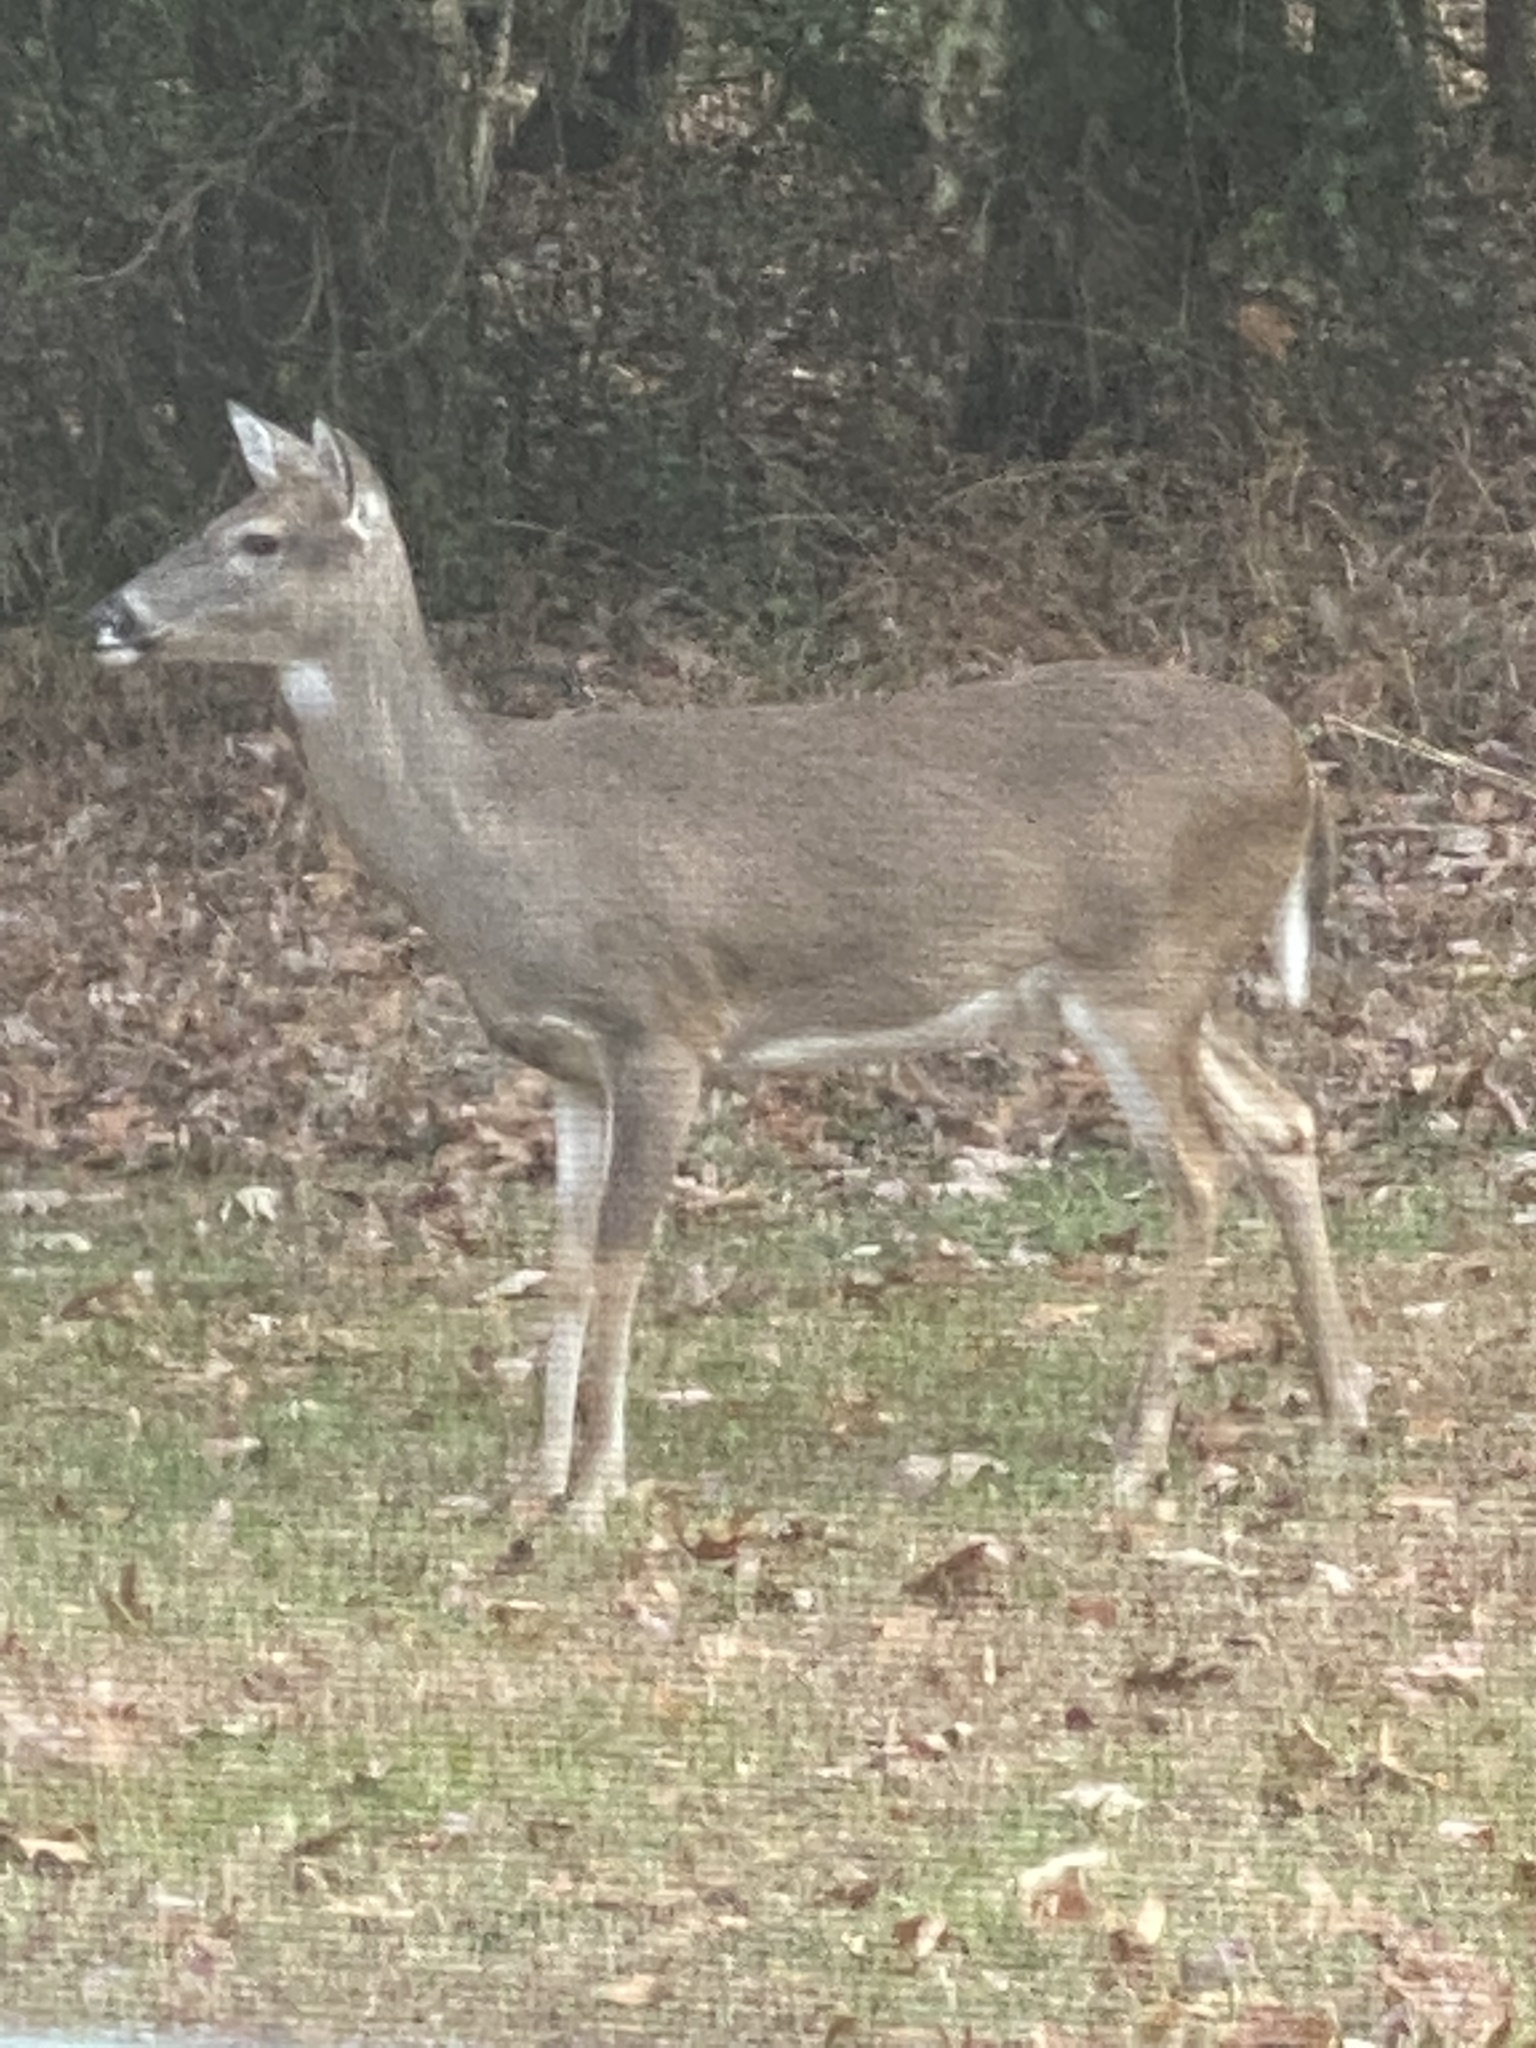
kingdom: Animalia
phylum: Chordata
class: Mammalia
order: Artiodactyla
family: Cervidae
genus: Odocoileus
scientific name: Odocoileus virginianus
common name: White-tailed deer
